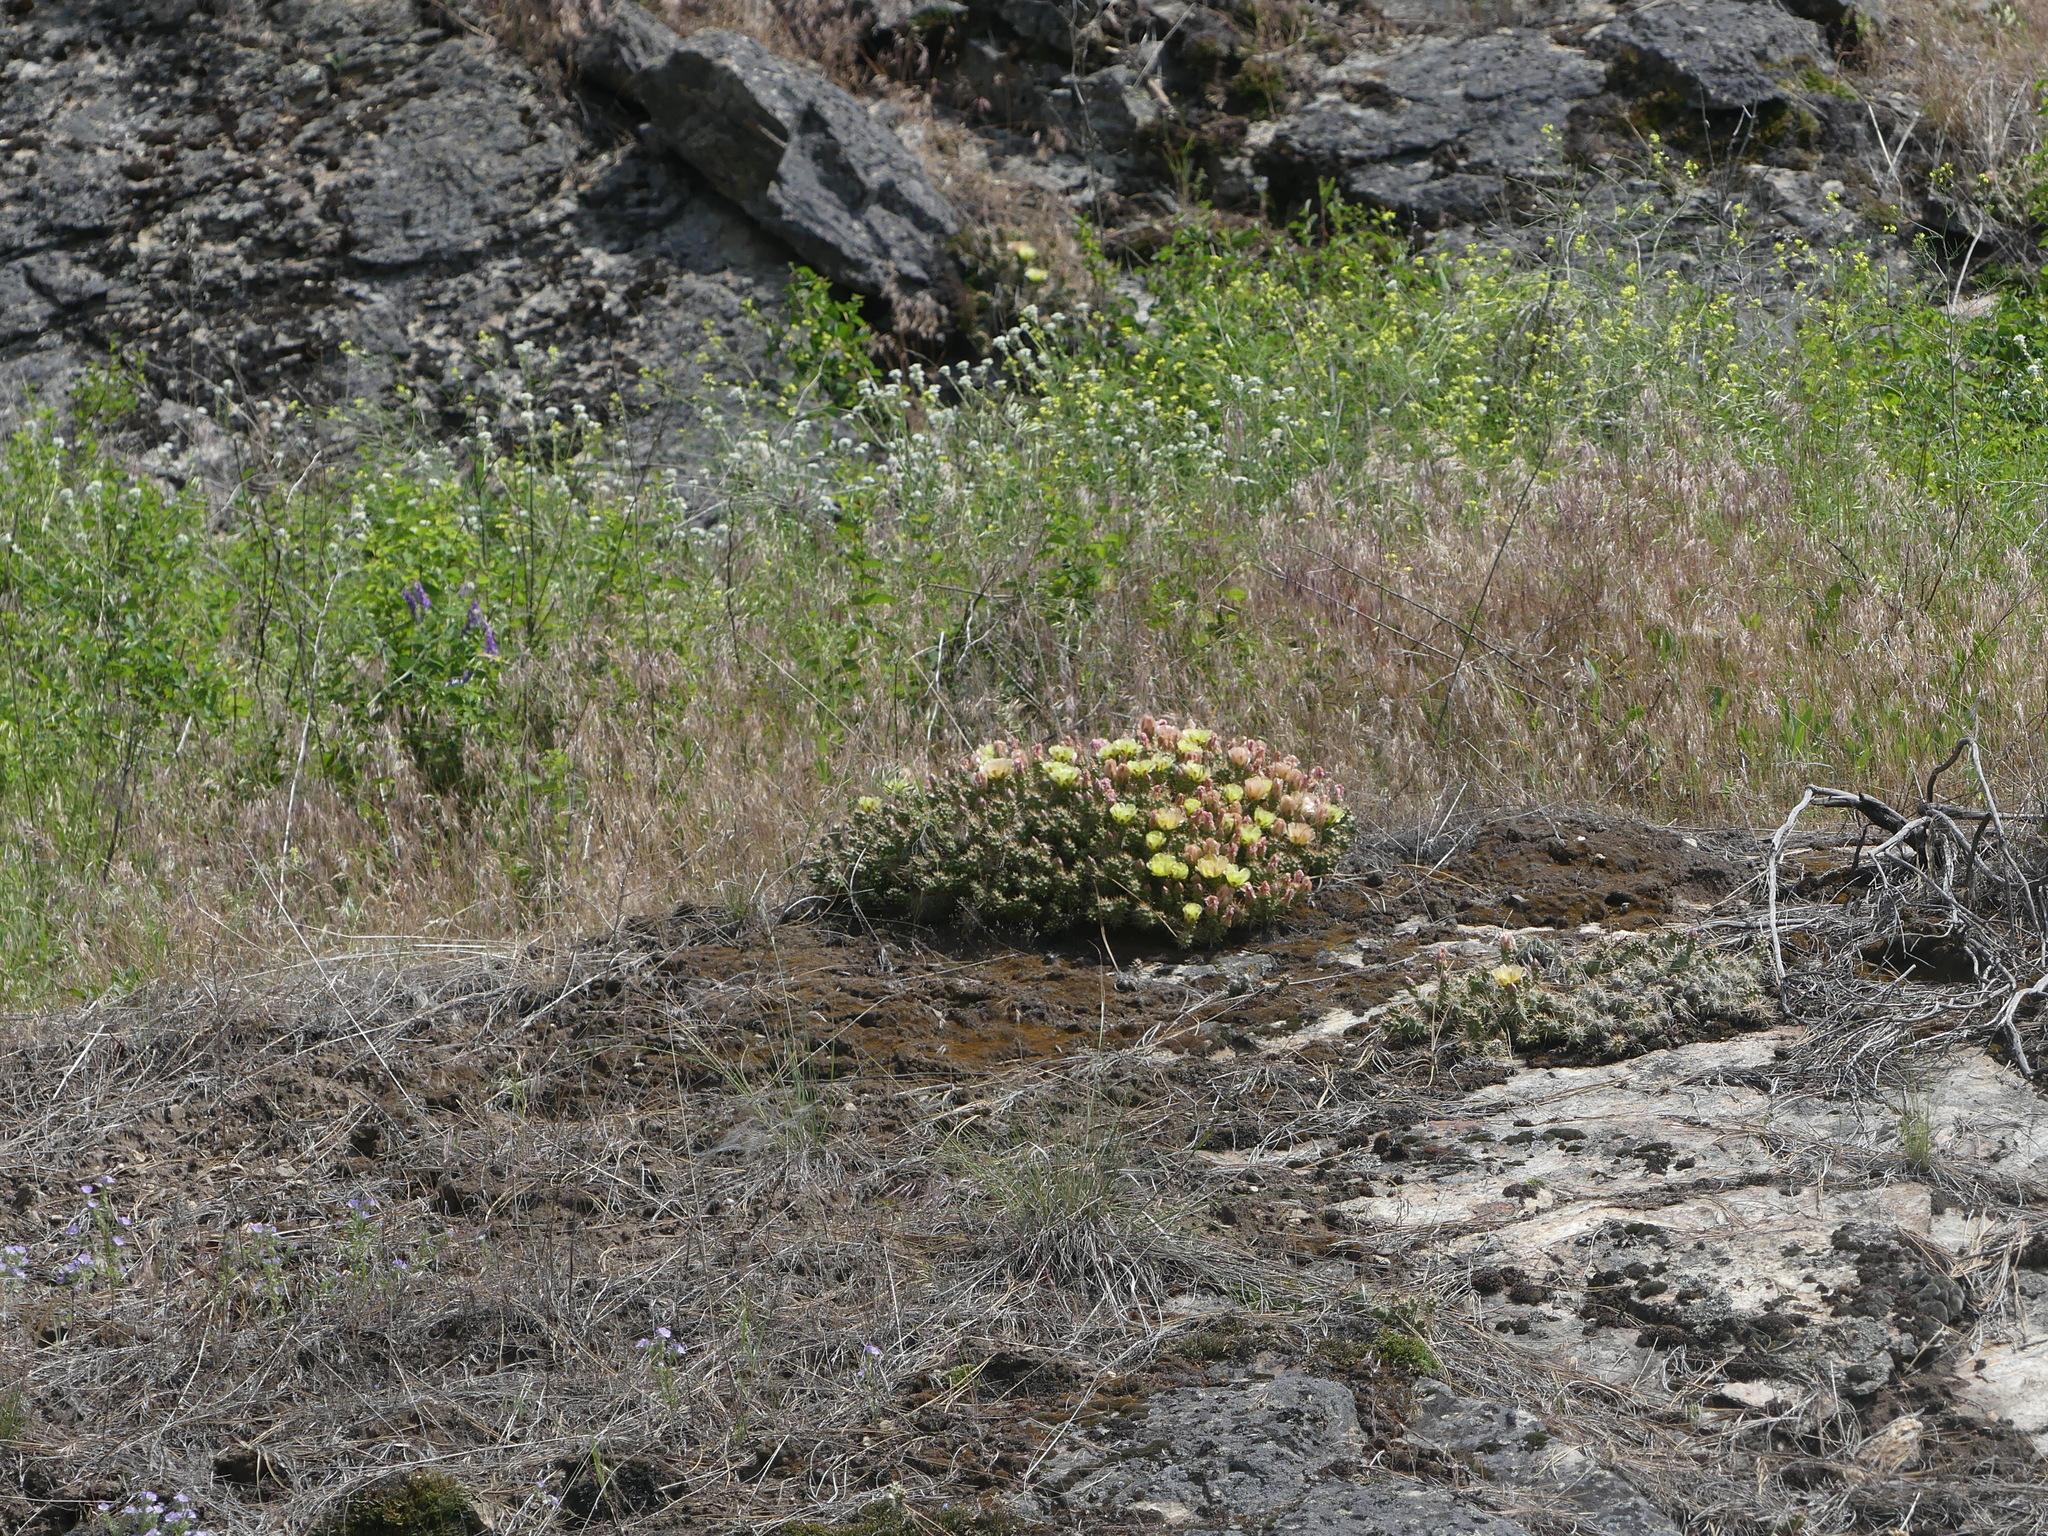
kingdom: Plantae
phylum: Tracheophyta
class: Magnoliopsida
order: Caryophyllales
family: Cactaceae
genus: Opuntia
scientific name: Opuntia fragilis
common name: Brittle cactus
